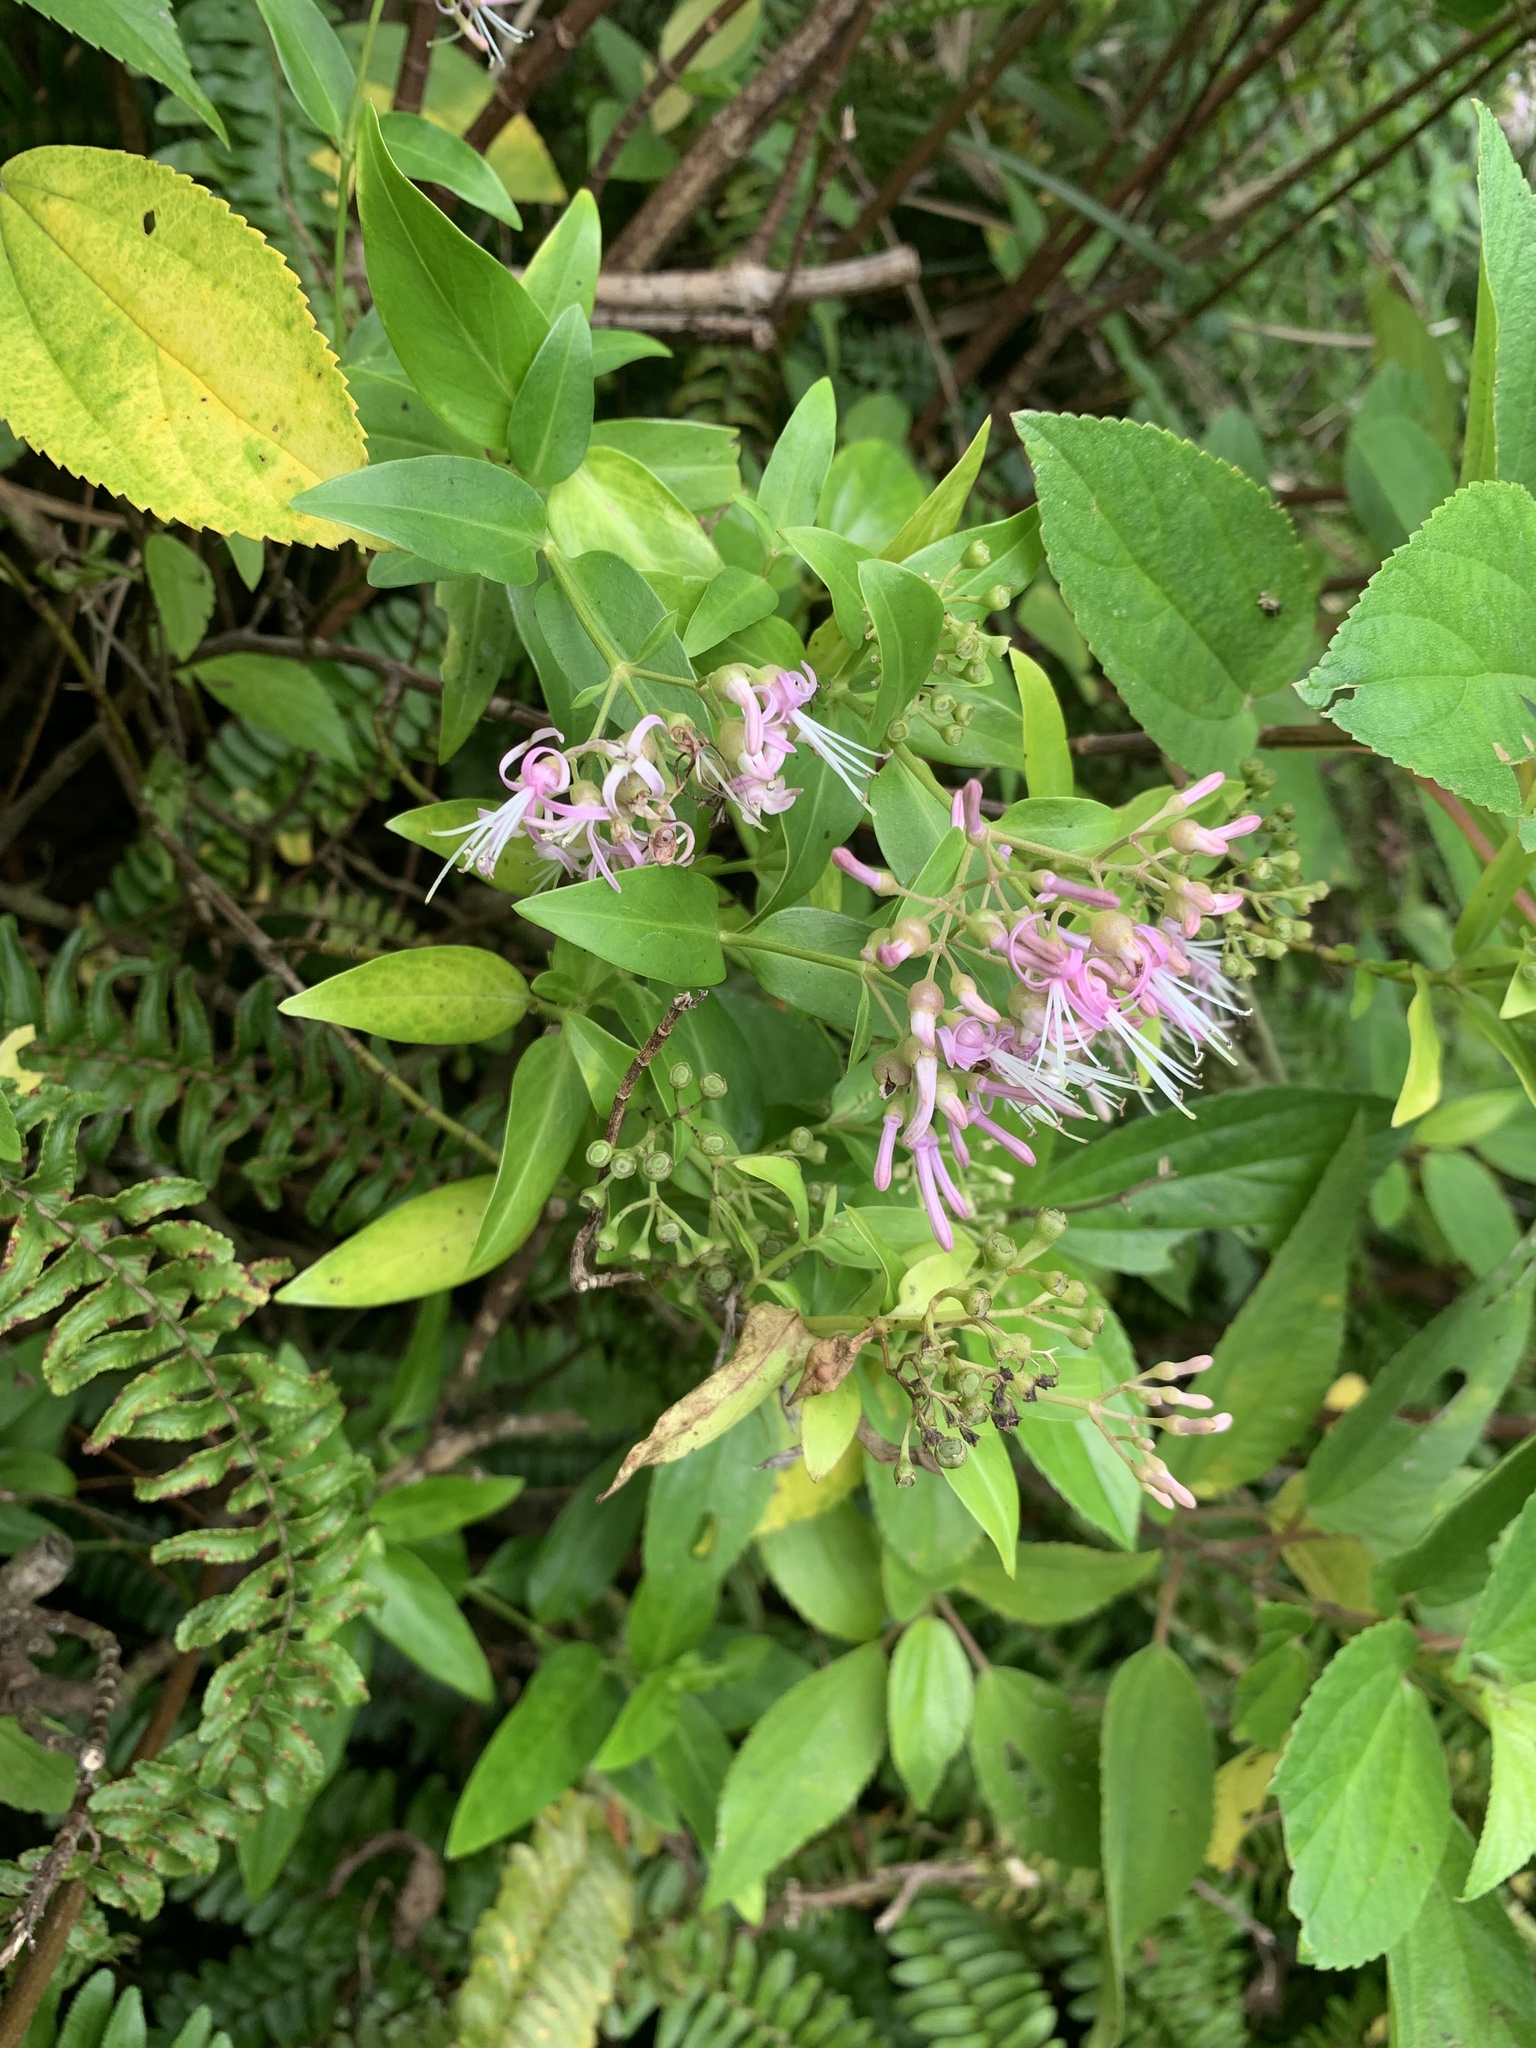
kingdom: Plantae
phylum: Tracheophyta
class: Magnoliopsida
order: Gentianales
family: Rubiaceae
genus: Leptopetalum
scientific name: Leptopetalum grayi
